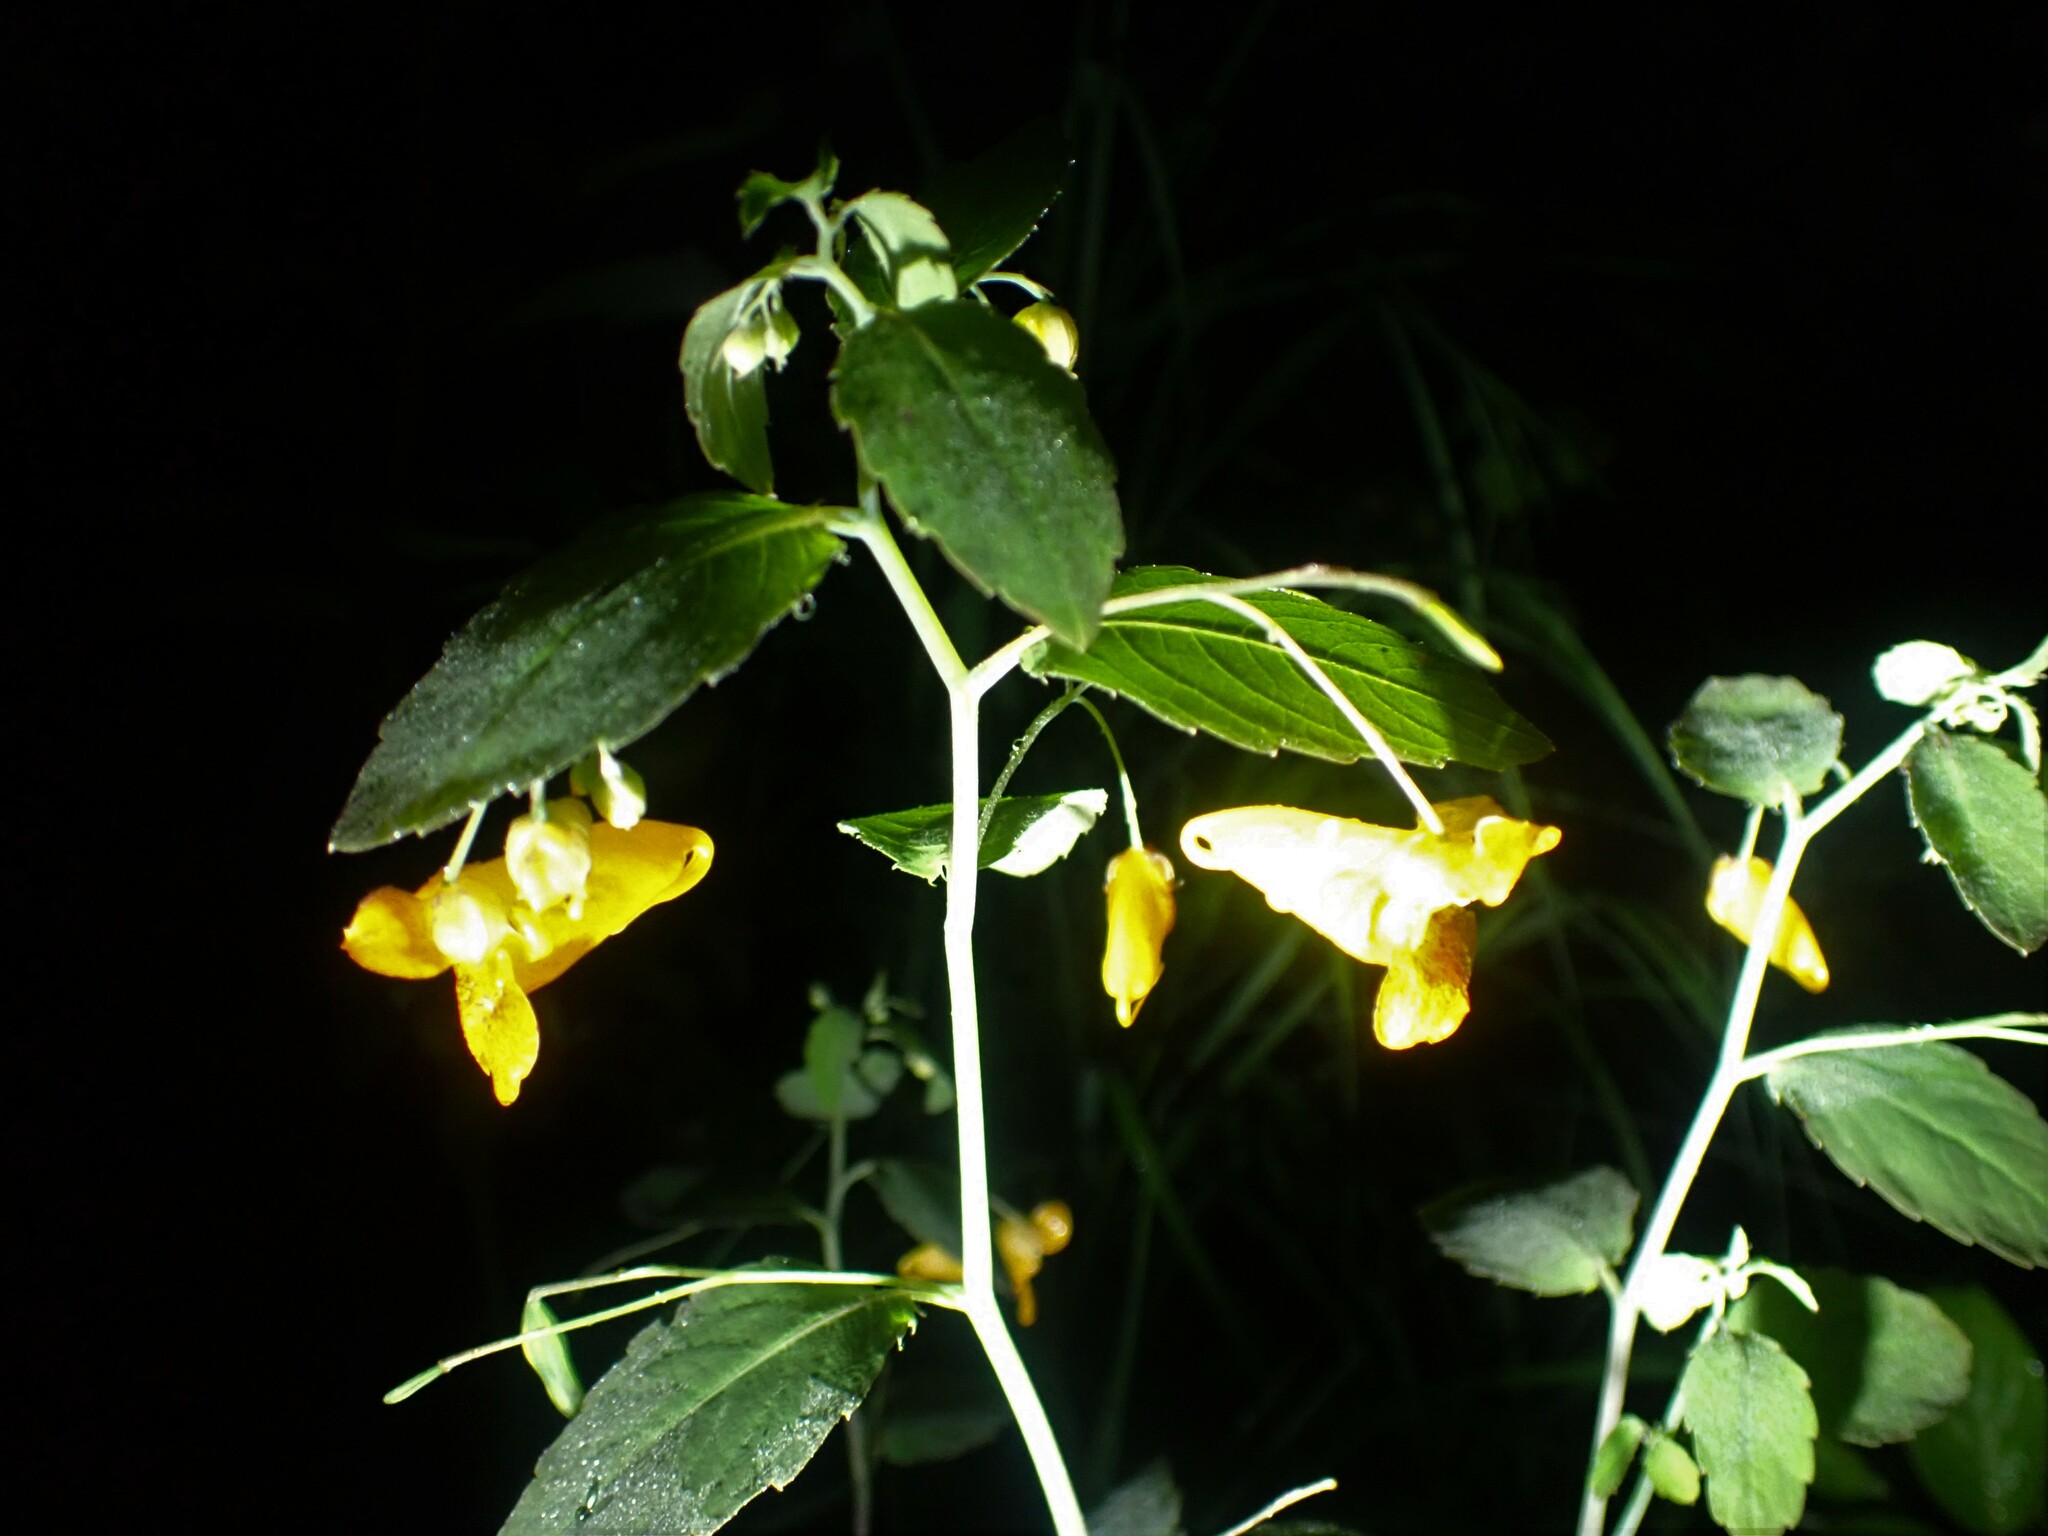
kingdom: Plantae
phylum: Tracheophyta
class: Magnoliopsida
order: Ericales
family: Balsaminaceae
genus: Impatiens
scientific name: Impatiens capensis
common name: Orange balsam
